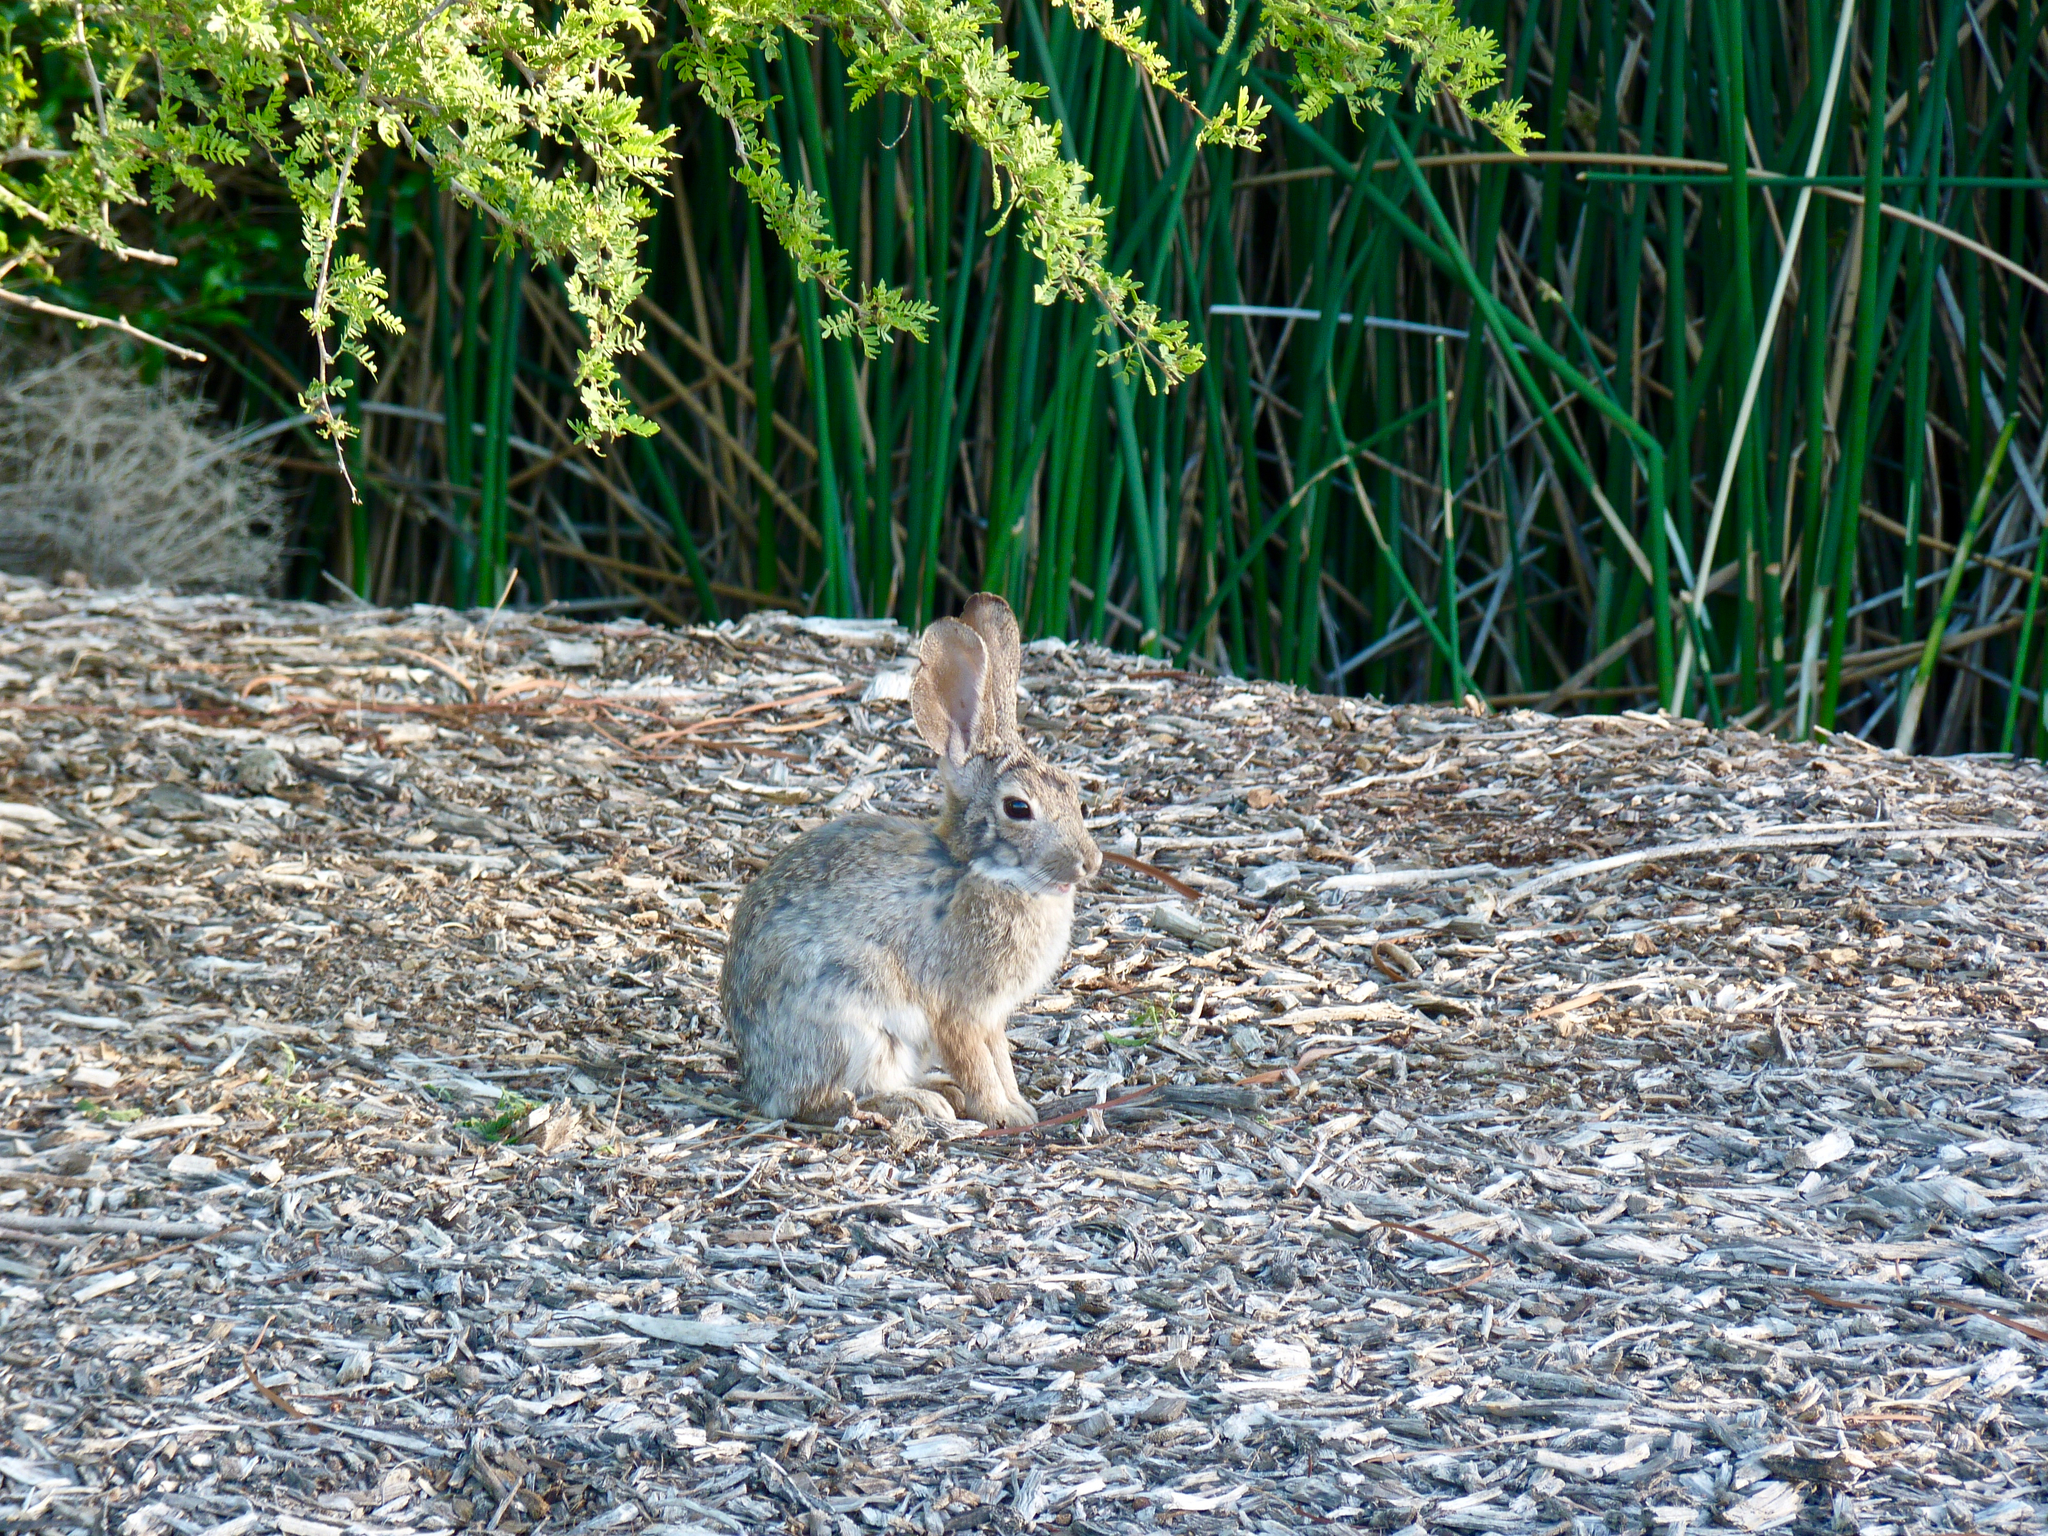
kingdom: Animalia
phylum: Chordata
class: Mammalia
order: Lagomorpha
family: Leporidae
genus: Sylvilagus
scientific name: Sylvilagus audubonii
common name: Desert cottontail
